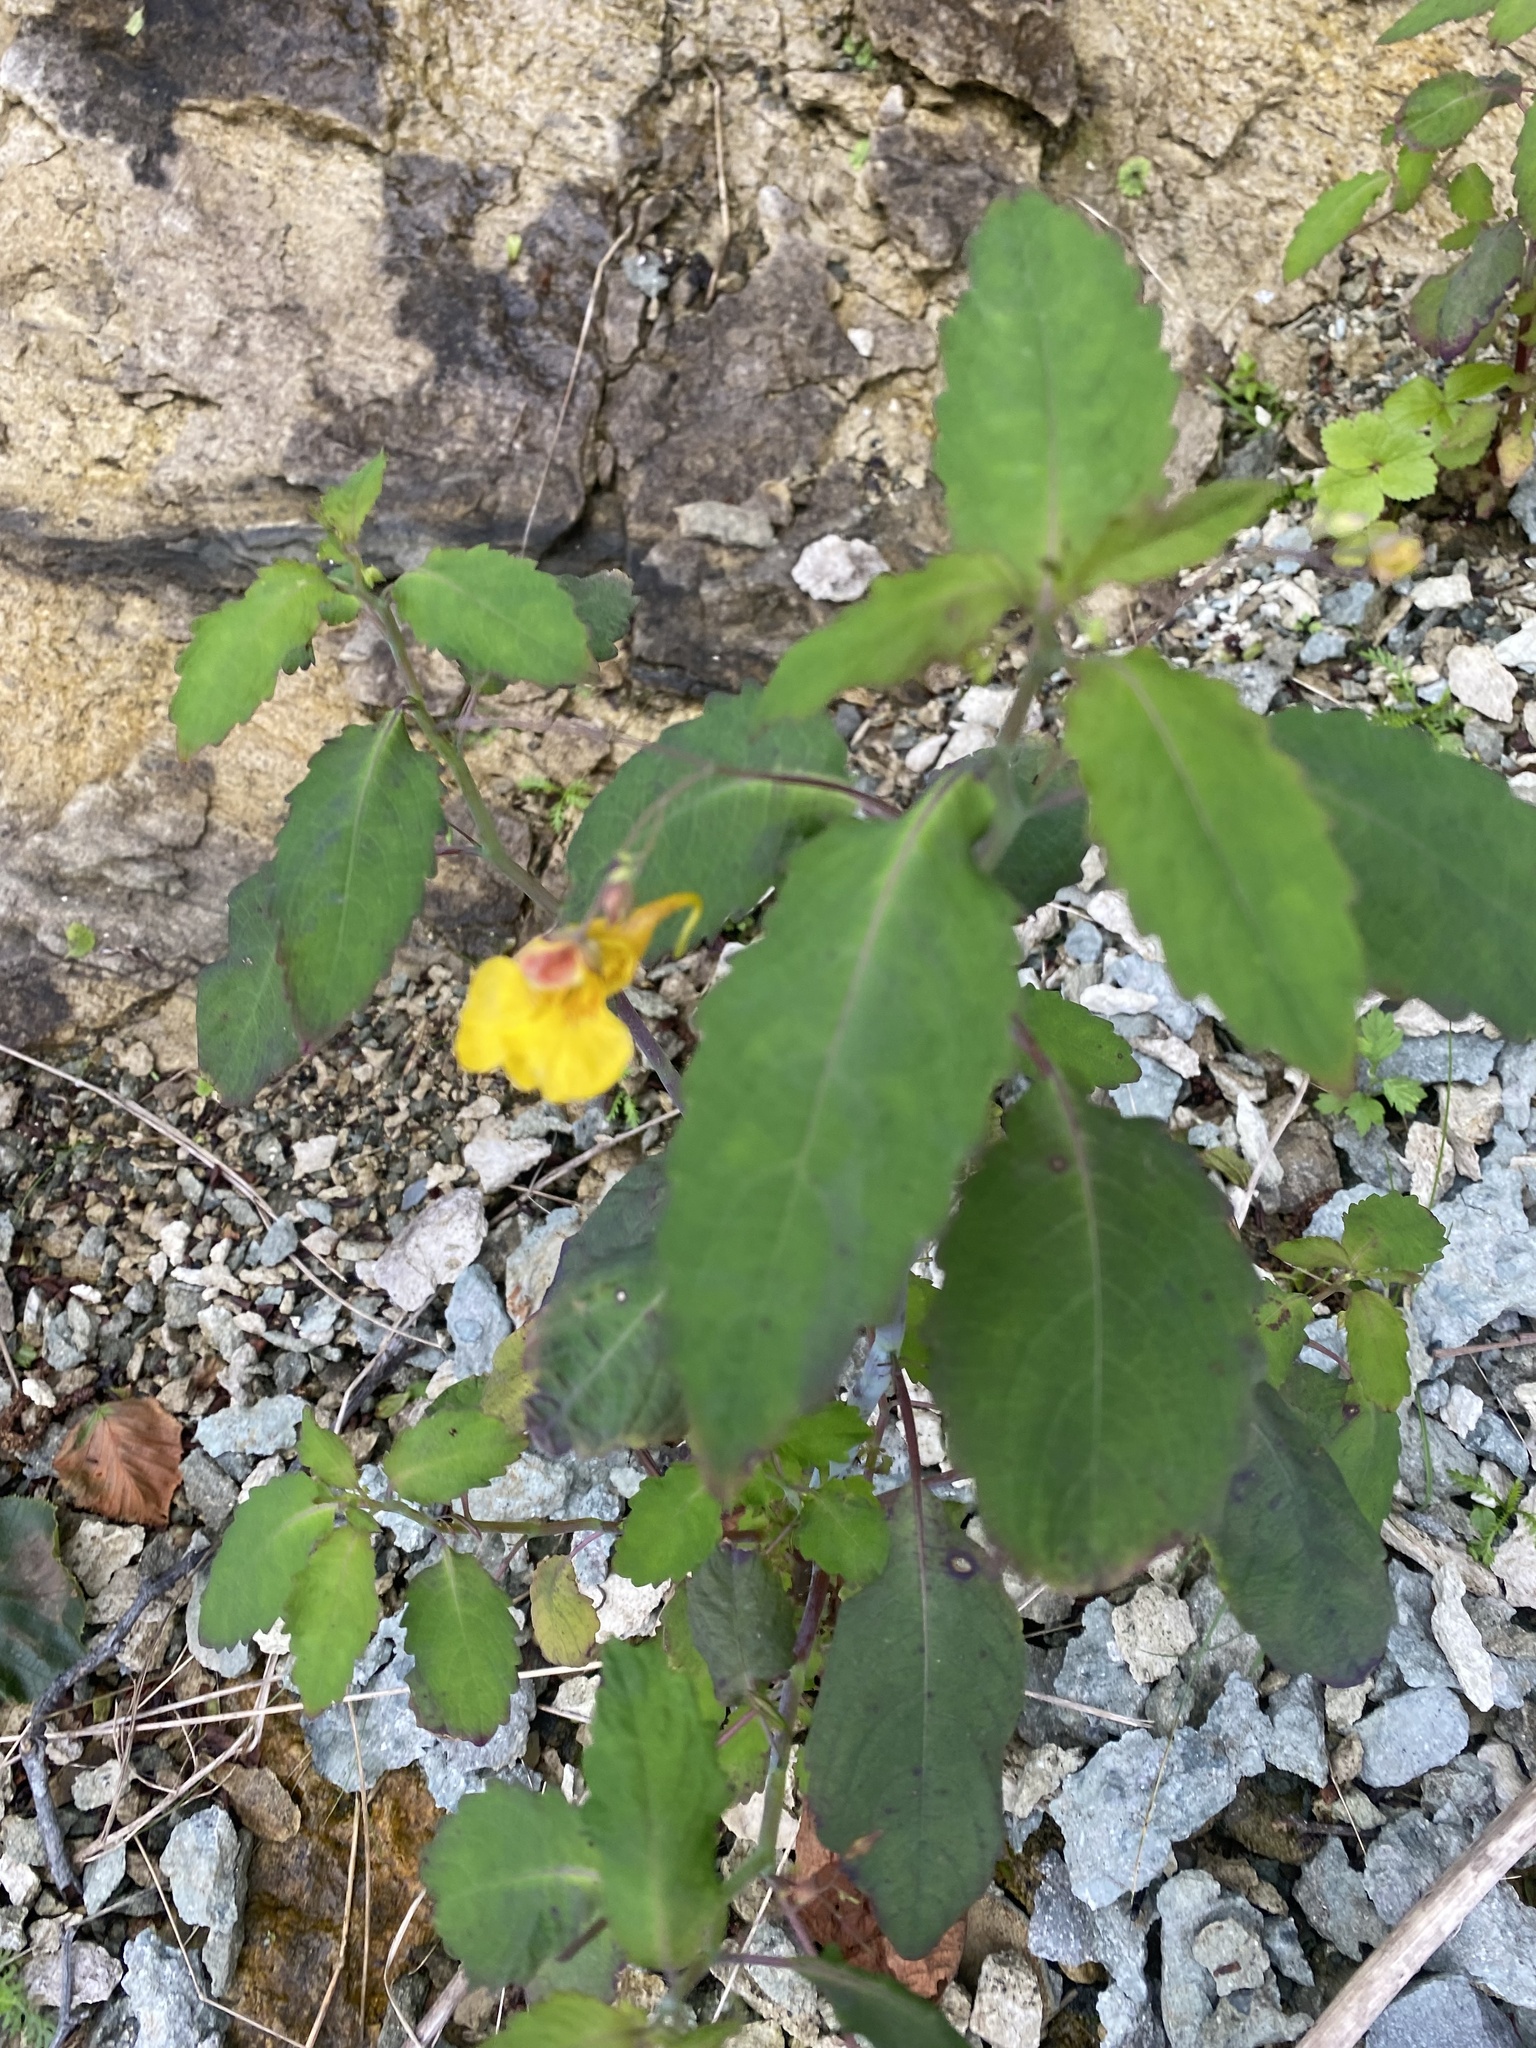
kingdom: Plantae
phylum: Tracheophyta
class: Magnoliopsida
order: Ericales
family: Balsaminaceae
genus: Impatiens
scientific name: Impatiens noli-tangere
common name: Touch-me-not balsam
